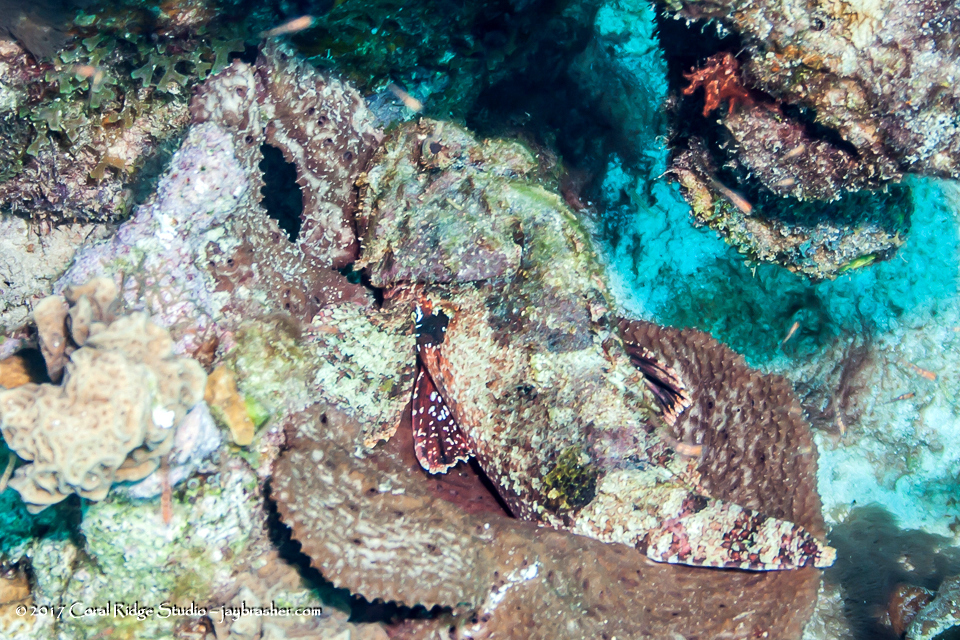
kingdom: Animalia
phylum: Chordata
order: Scorpaeniformes
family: Scorpaenidae
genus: Scorpaena
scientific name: Scorpaena plumieri
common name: Spotted scorpionfish
